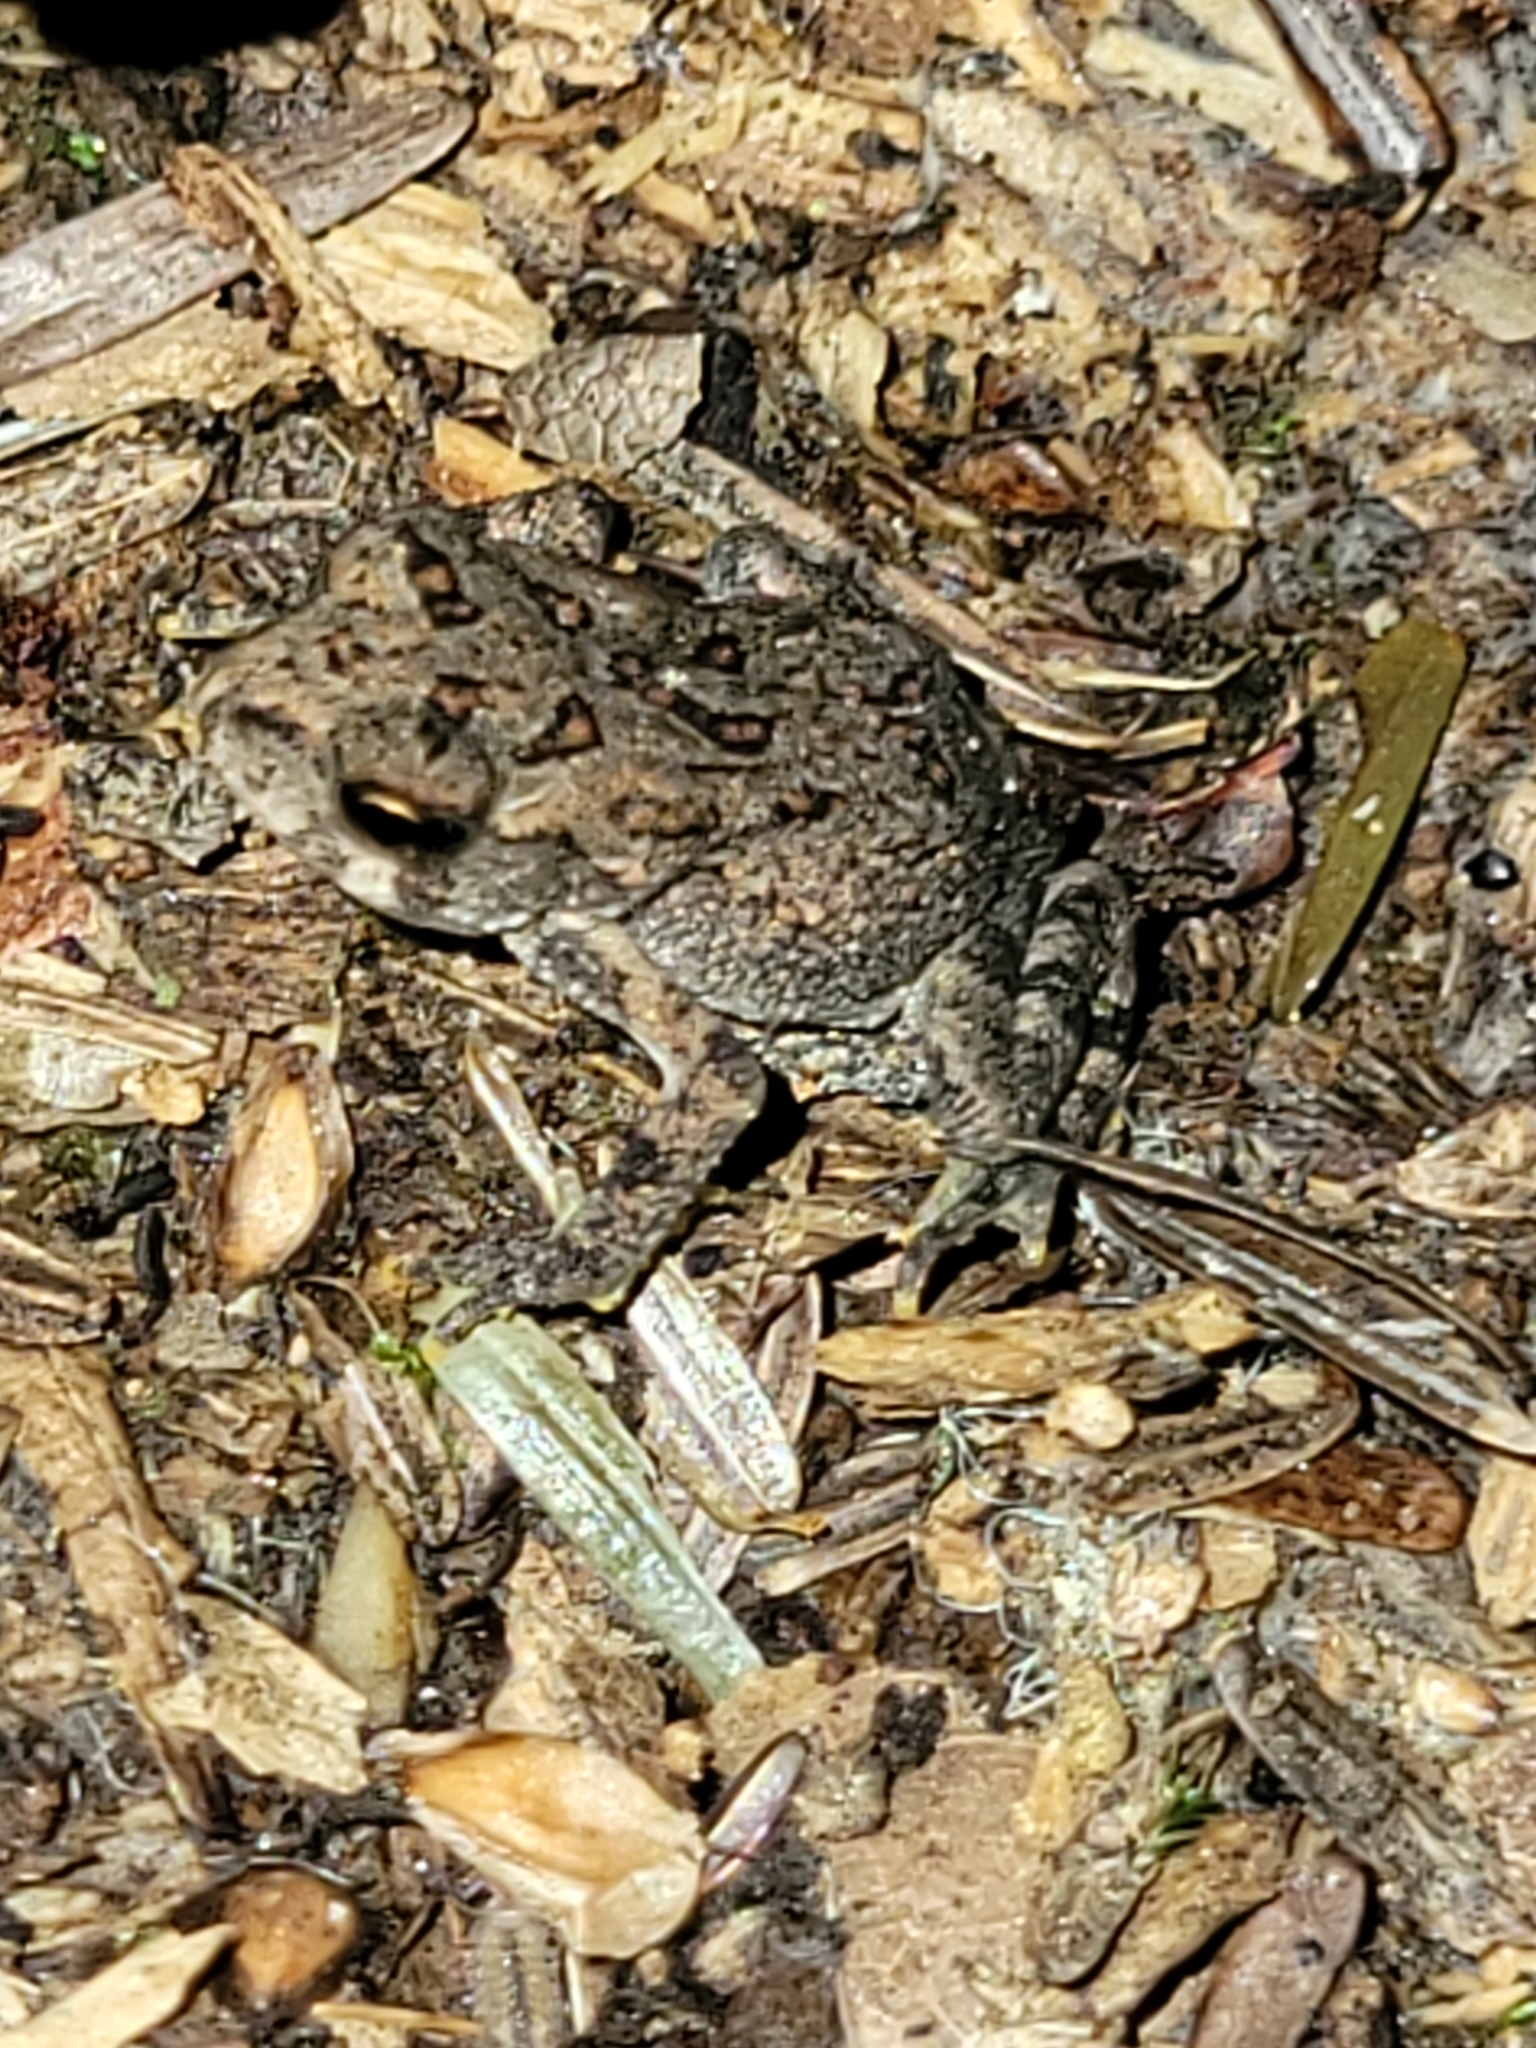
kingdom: Animalia
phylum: Chordata
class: Amphibia
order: Anura
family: Bufonidae
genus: Anaxyrus
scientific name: Anaxyrus americanus
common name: American toad
